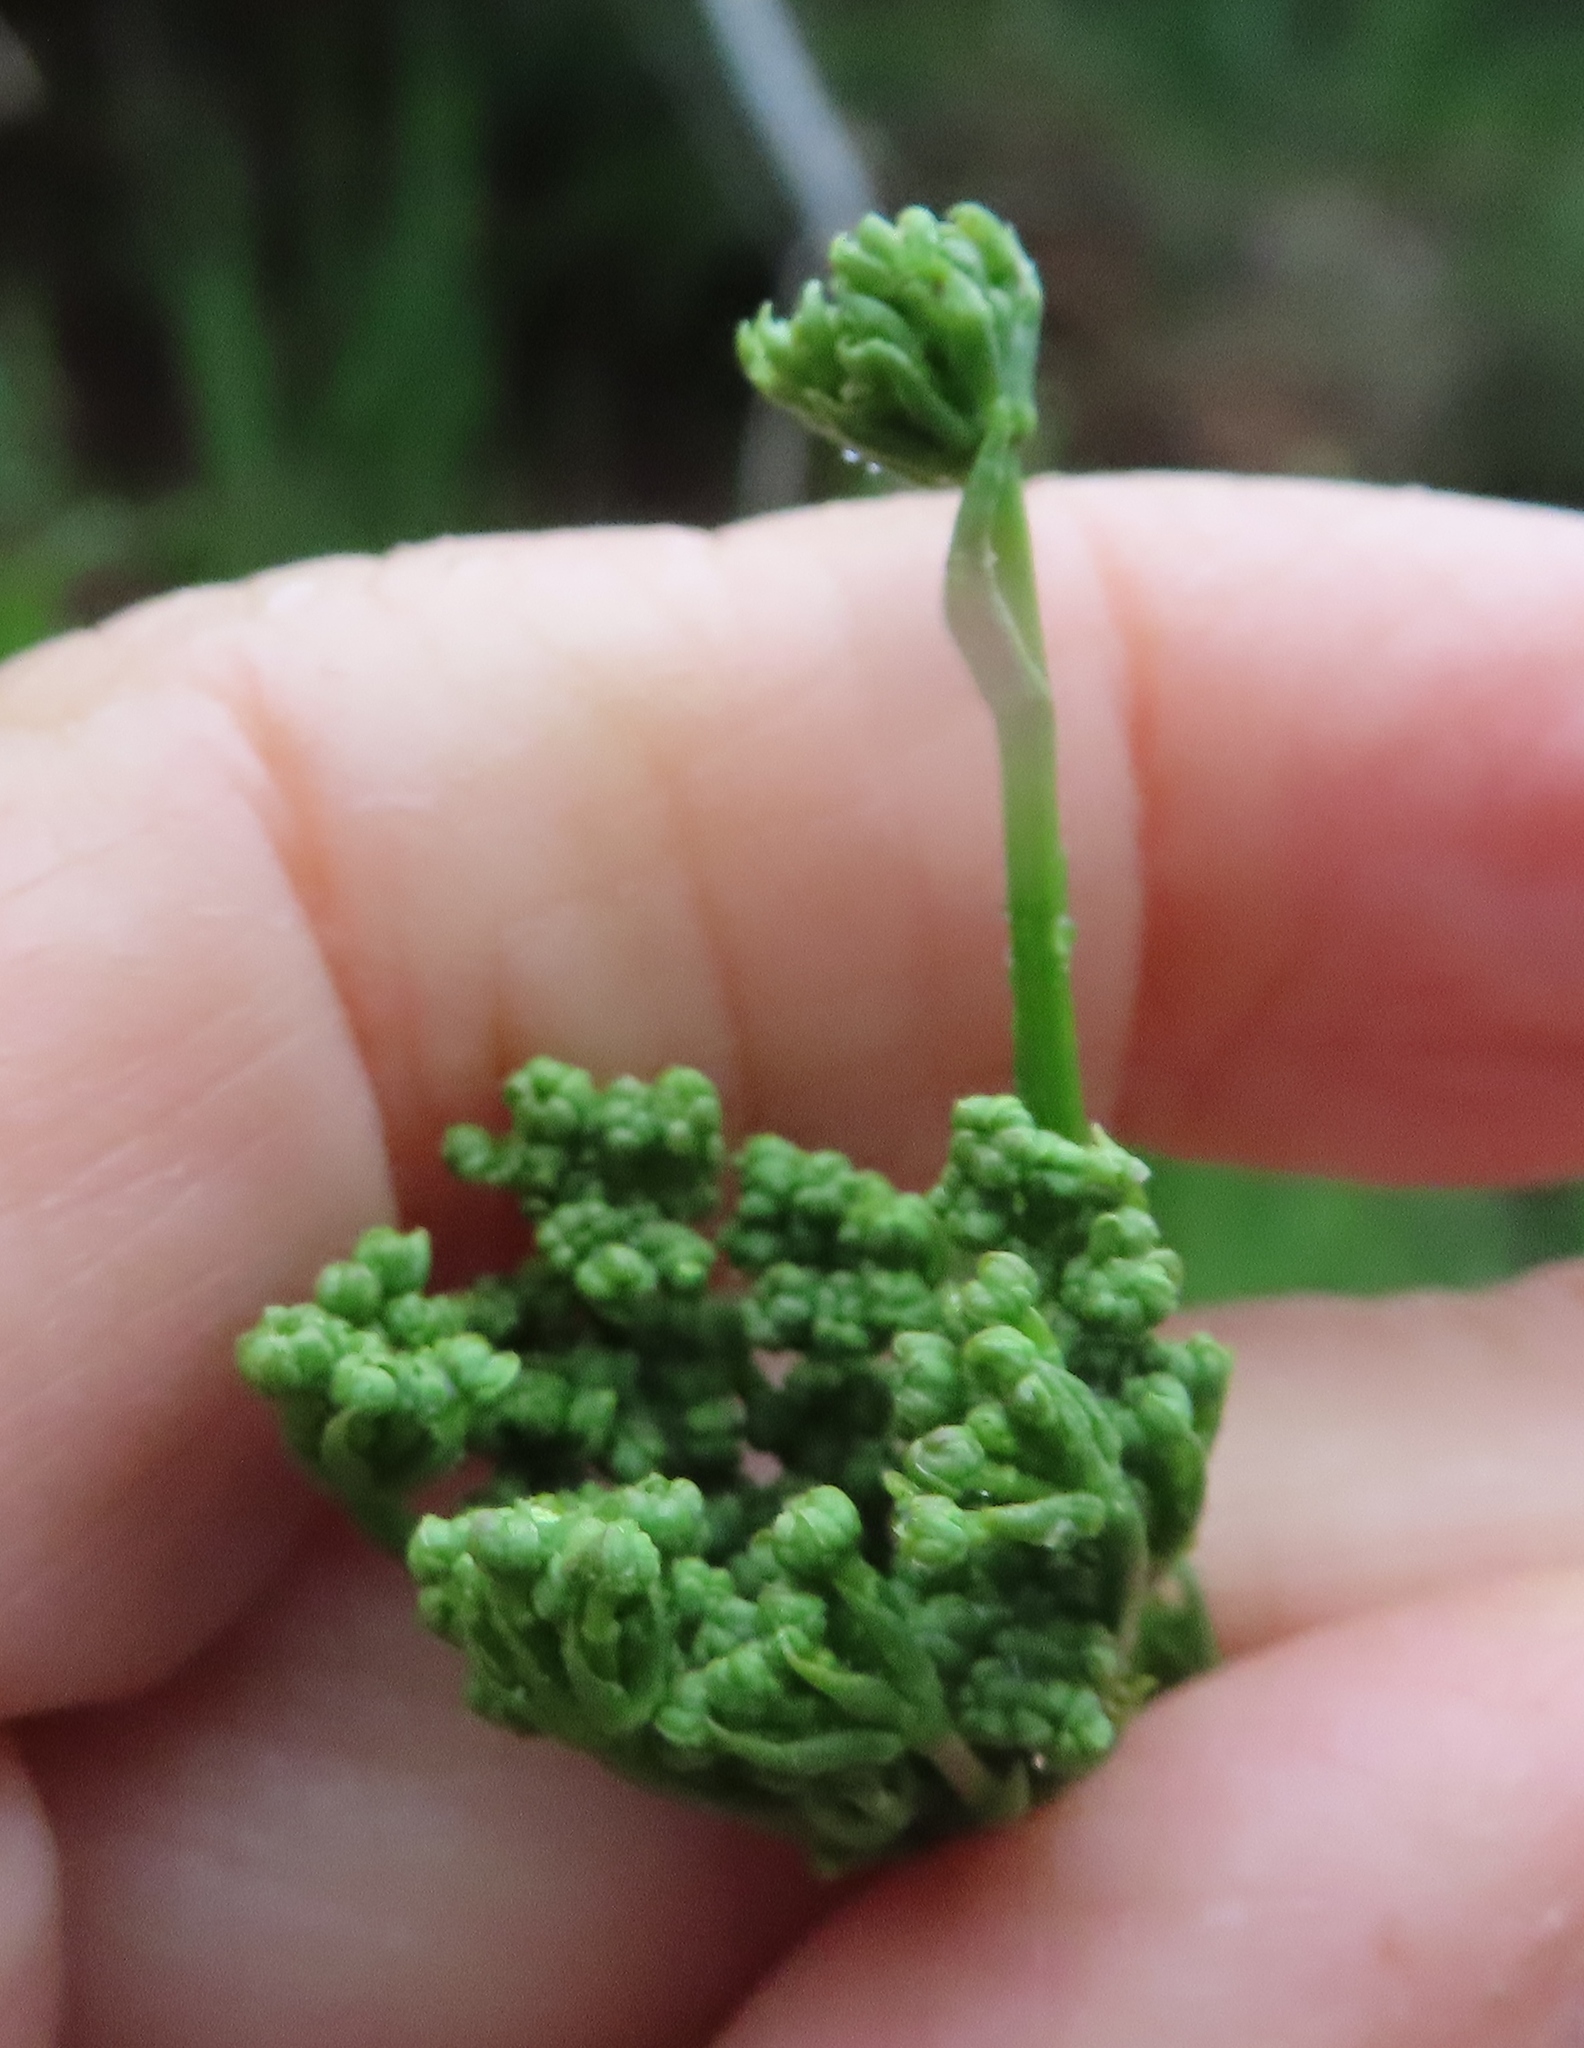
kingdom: Plantae
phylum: Tracheophyta
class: Magnoliopsida
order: Apiales
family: Apiaceae
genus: Glia
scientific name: Glia prolifera
